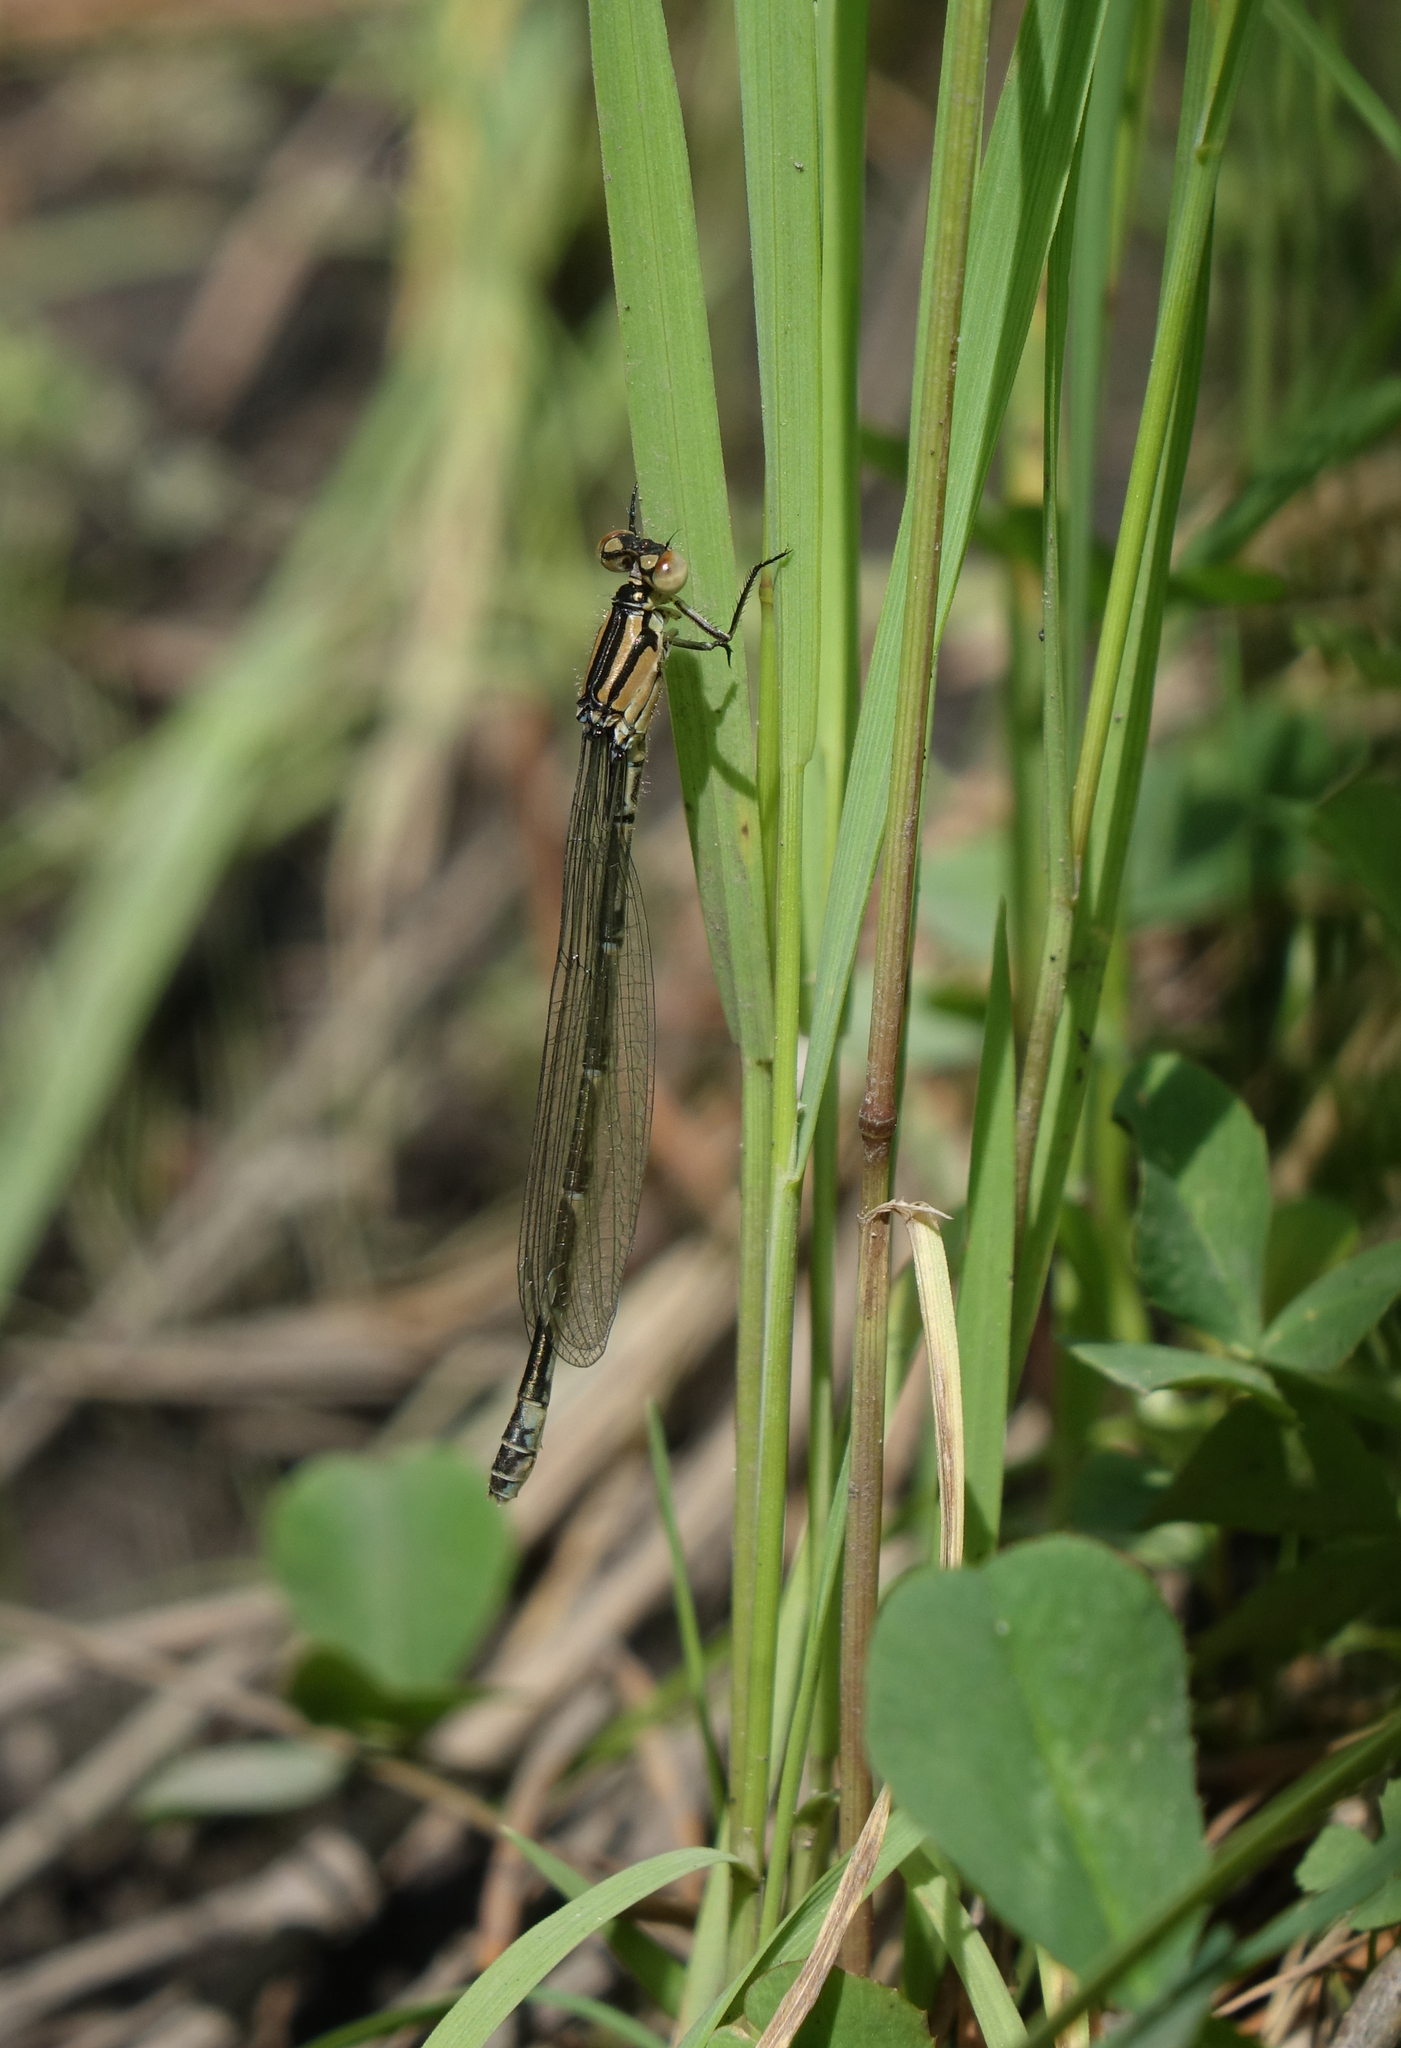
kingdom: Animalia
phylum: Arthropoda
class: Insecta
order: Odonata
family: Coenagrionidae
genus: Enallagma
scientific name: Enallagma cyathigerum
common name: Common blue damselfly
